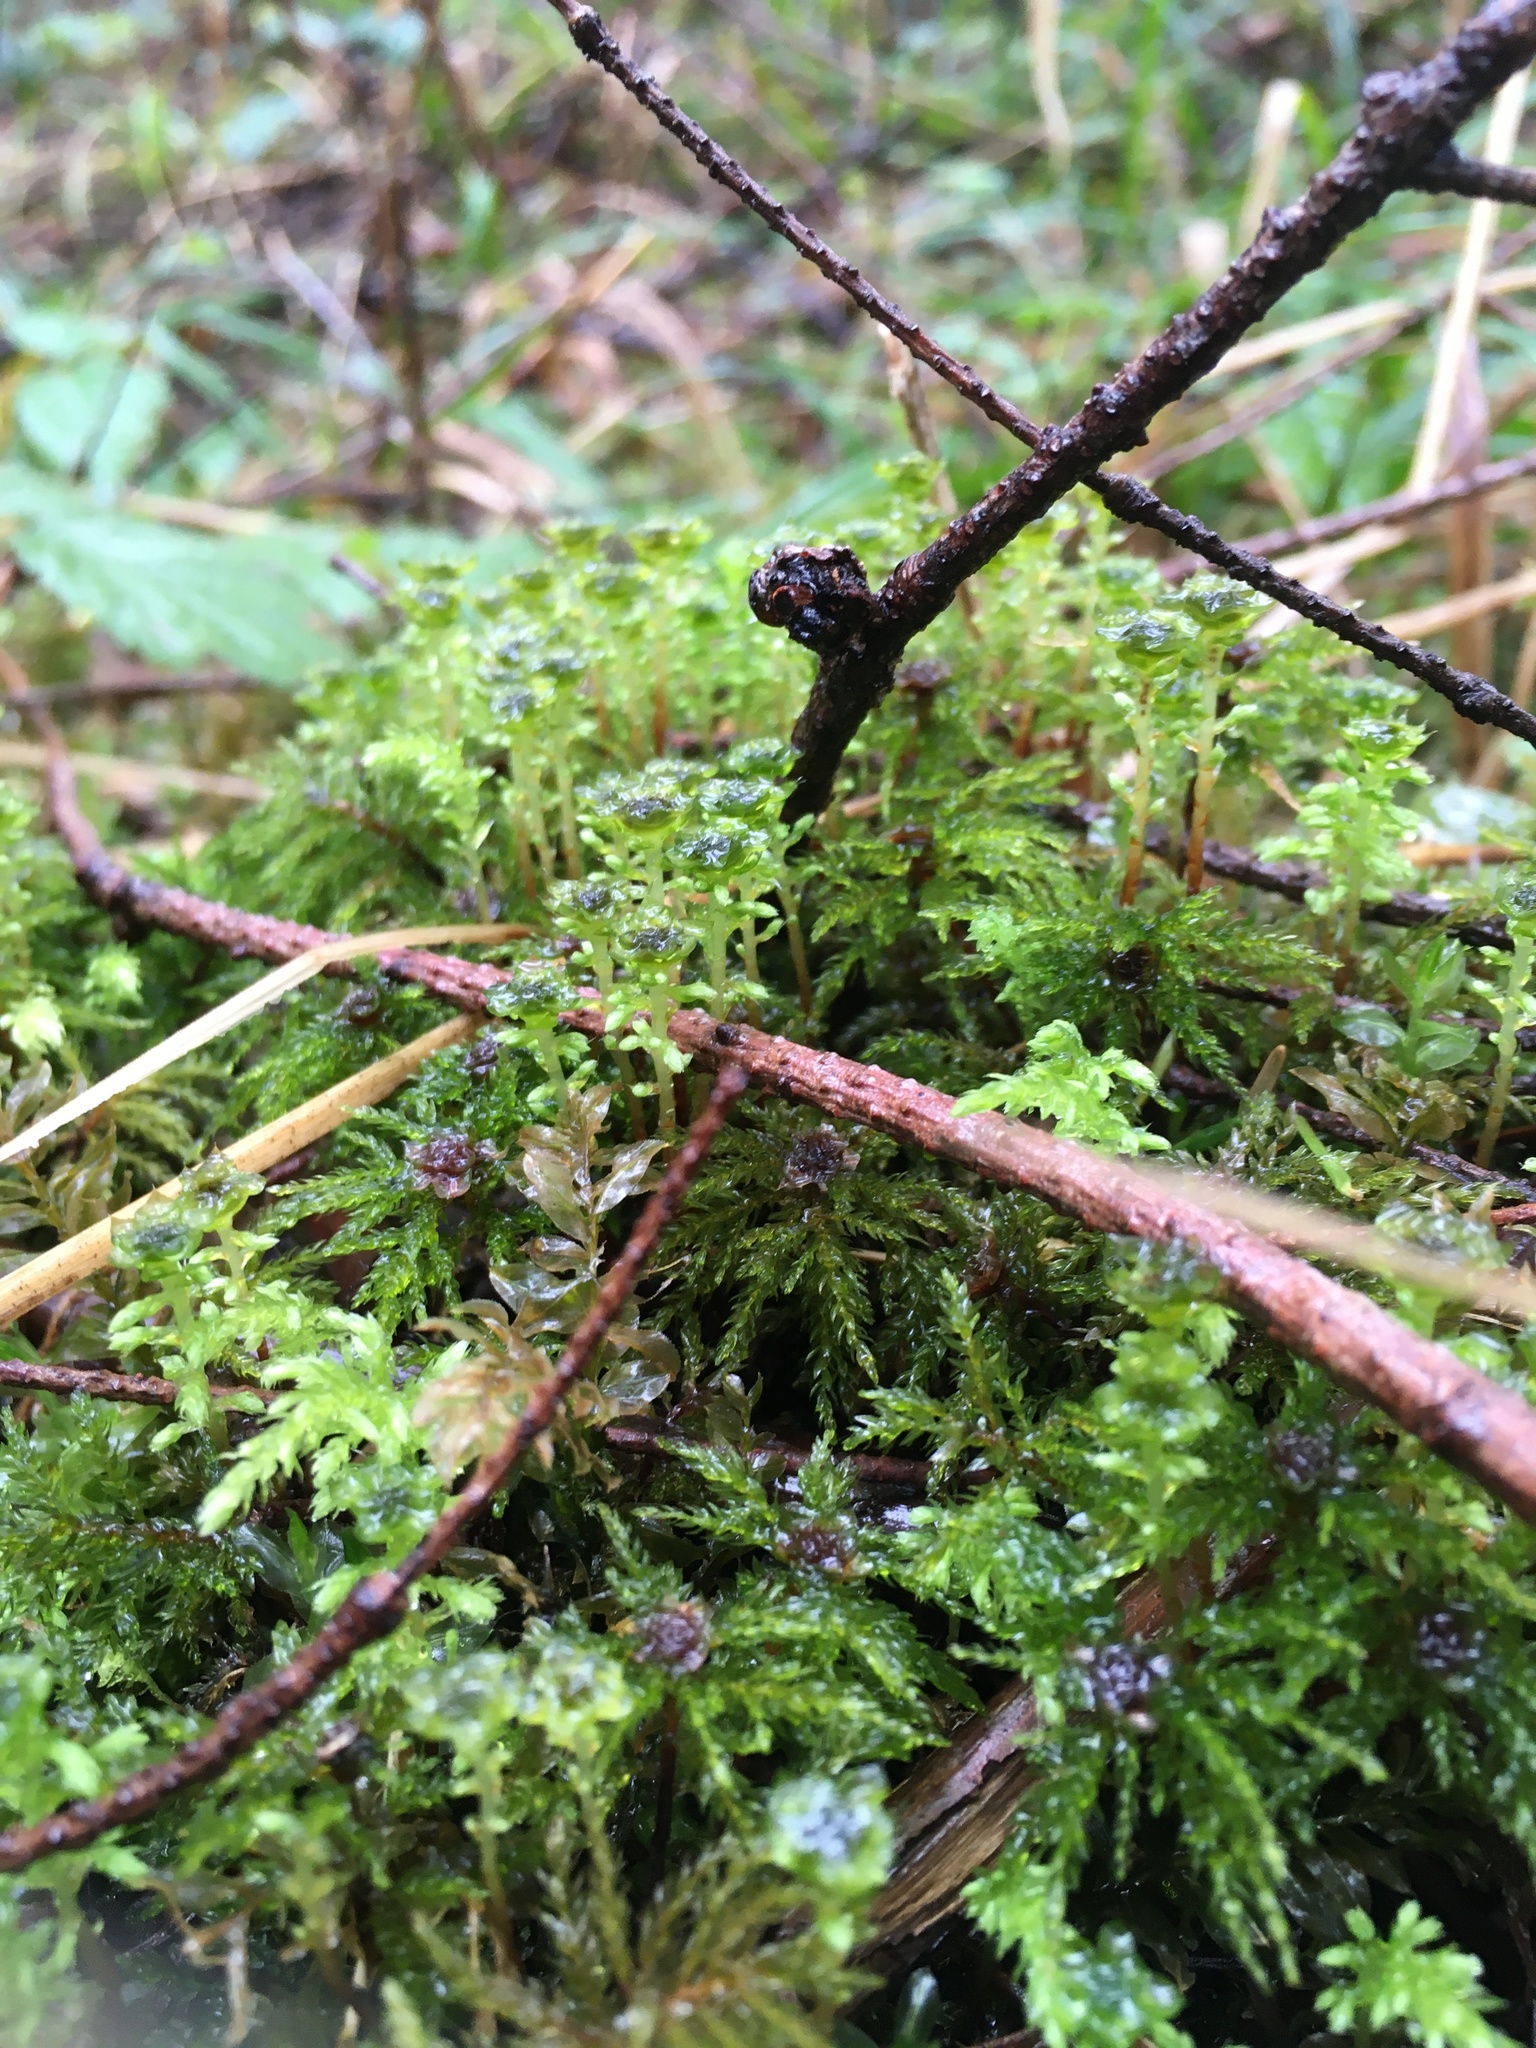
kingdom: Plantae
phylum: Bryophyta
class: Bryopsida
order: Bryales
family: Mniaceae
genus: Leucolepis
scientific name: Leucolepis acanthoneura
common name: Leucolepis umbrella moss
